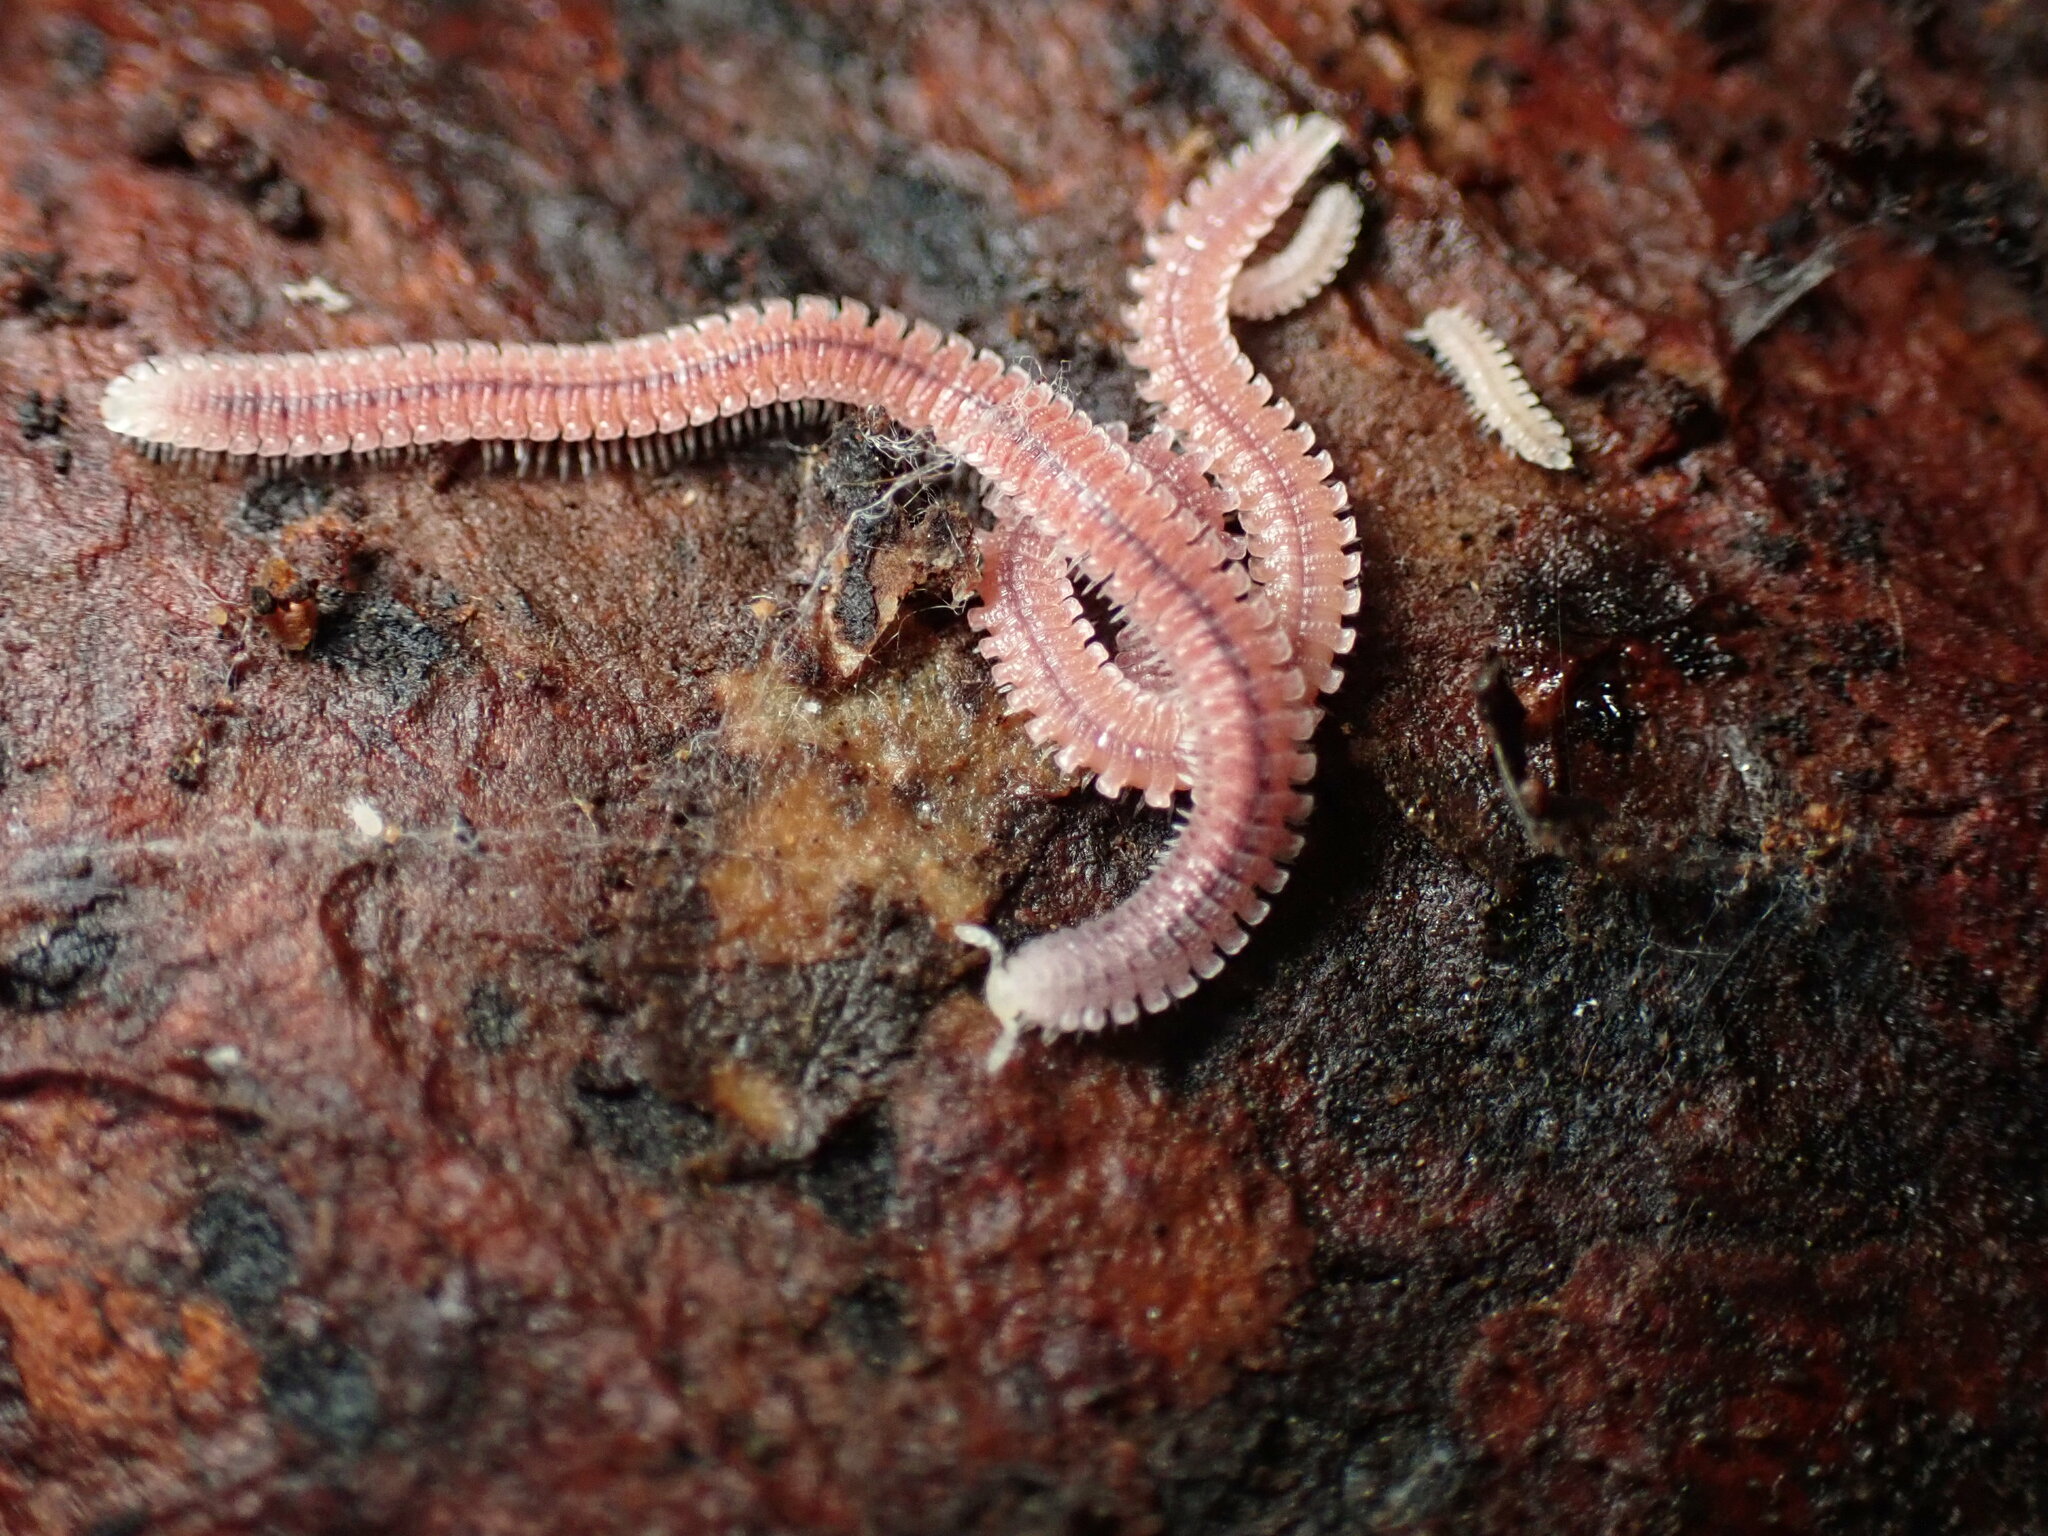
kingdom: Animalia
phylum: Arthropoda
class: Diplopoda
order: Platydesmida
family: Andrognathidae
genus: Gosodesmus
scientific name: Gosodesmus claremontus
